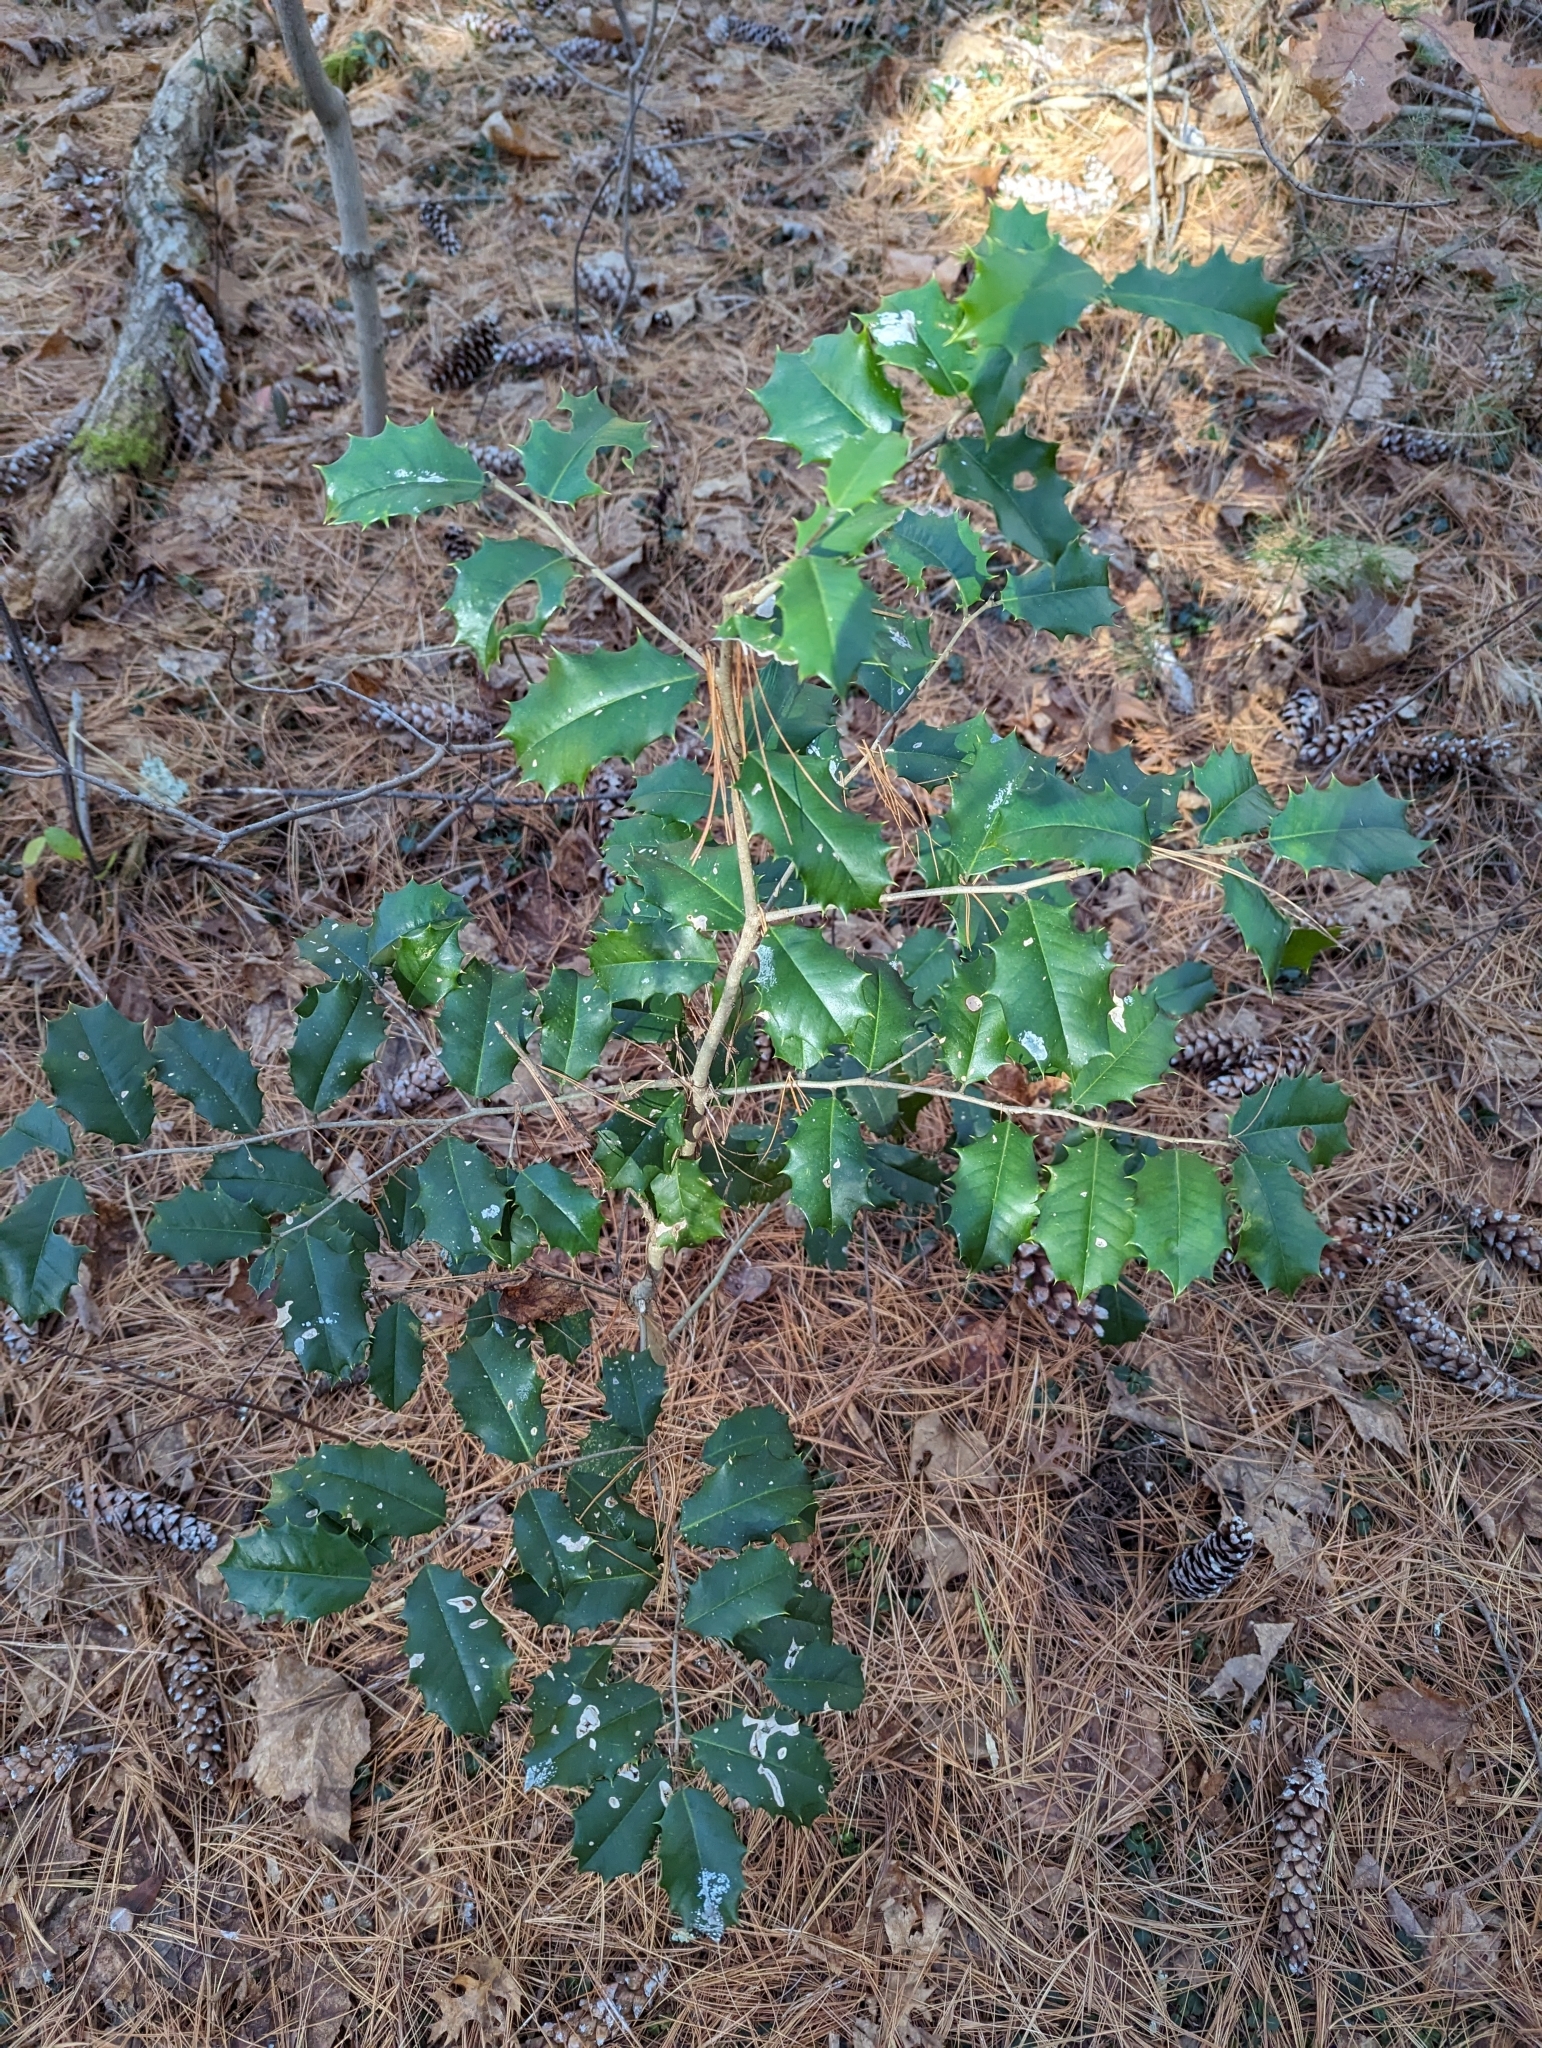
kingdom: Plantae
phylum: Tracheophyta
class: Magnoliopsida
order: Aquifoliales
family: Aquifoliaceae
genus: Ilex
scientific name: Ilex opaca
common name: American holly
